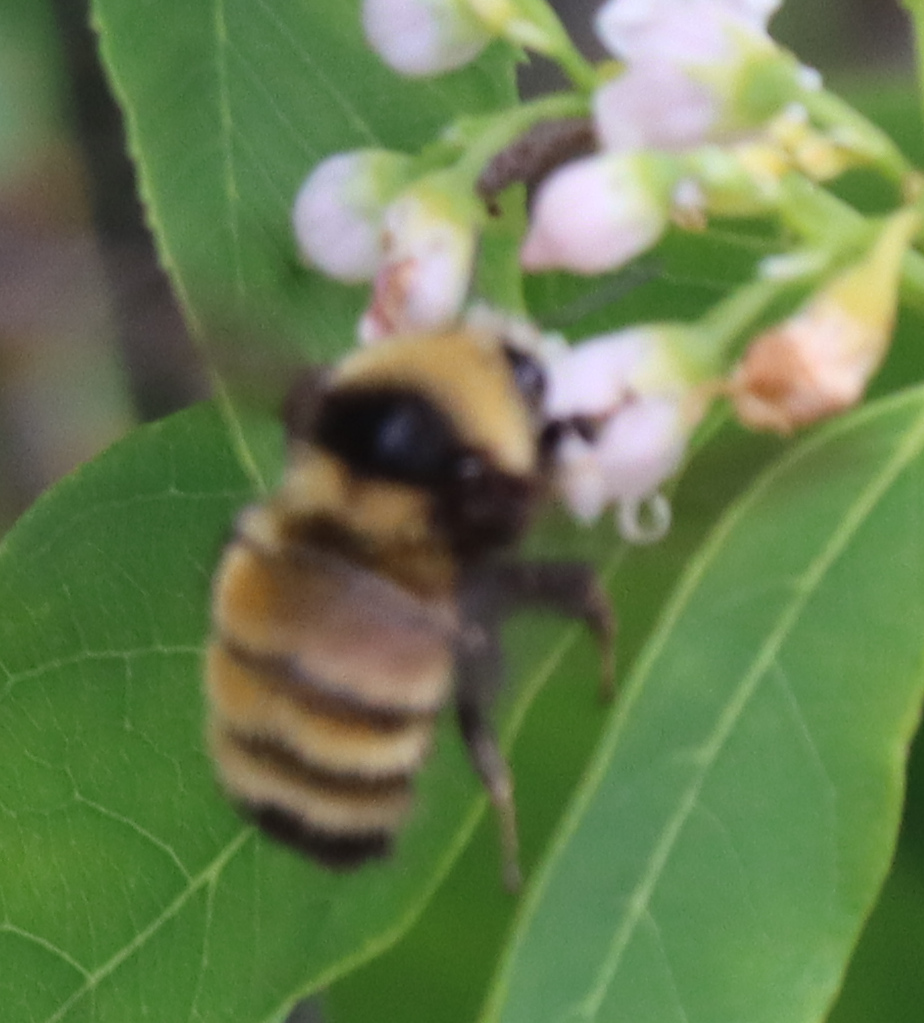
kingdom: Animalia
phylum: Arthropoda
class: Insecta
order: Hymenoptera
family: Apidae
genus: Bombus
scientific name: Bombus borealis
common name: Northern amber bumble bee
